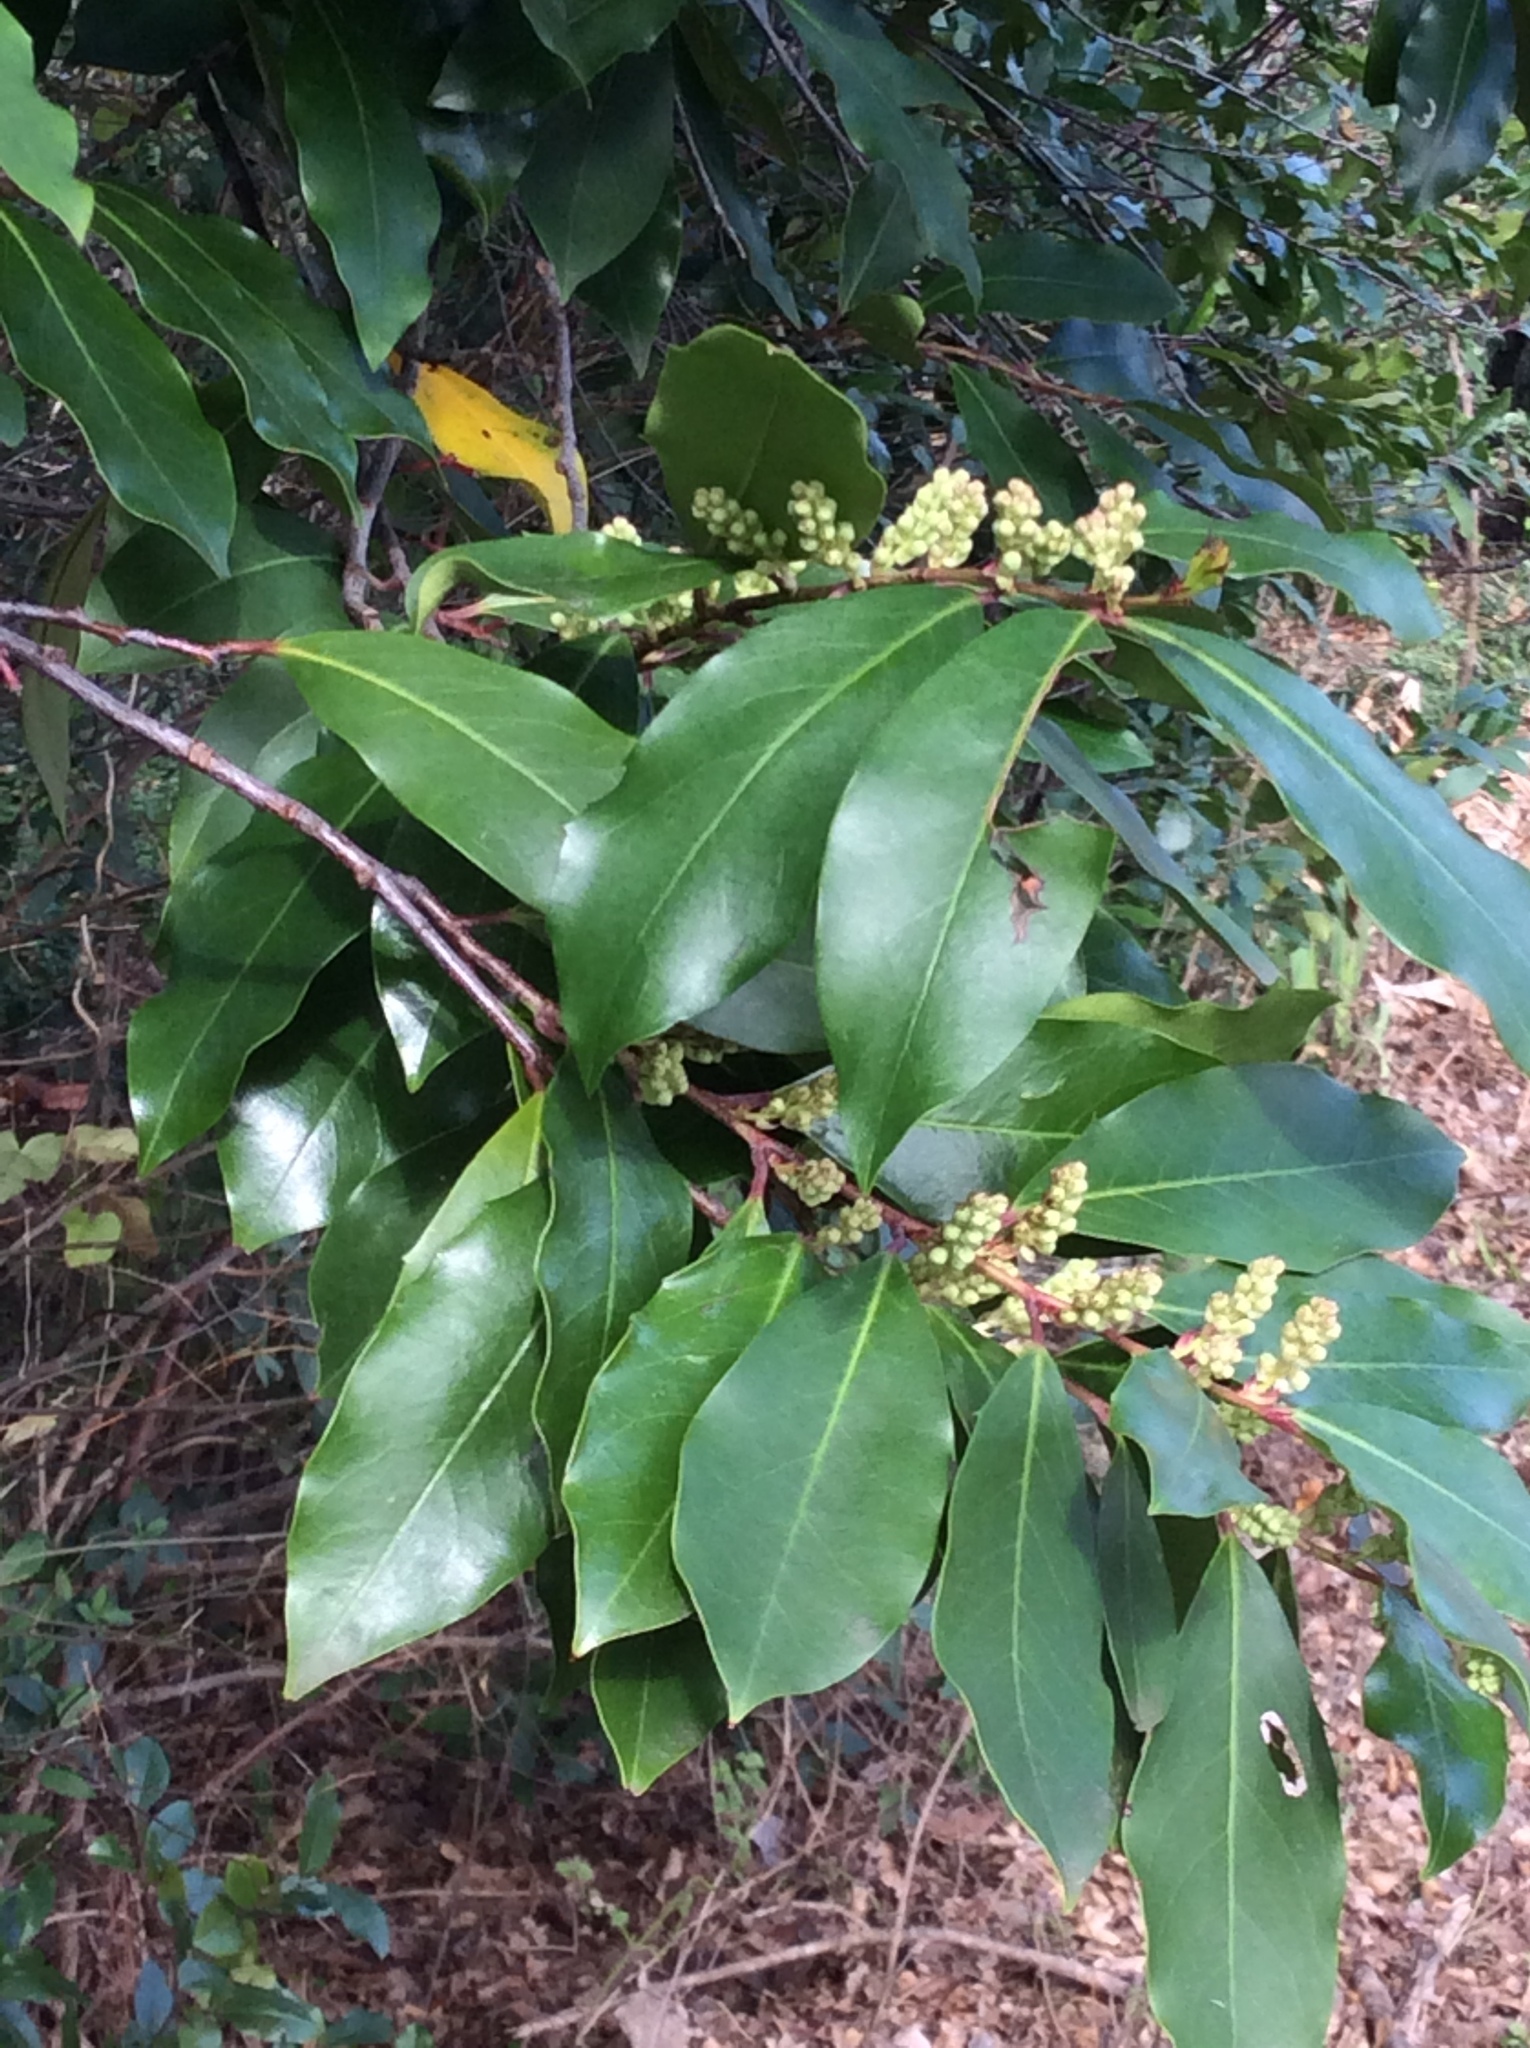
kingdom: Plantae
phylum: Tracheophyta
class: Magnoliopsida
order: Rosales
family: Rosaceae
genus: Prunus
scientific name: Prunus caroliniana
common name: Carolina laurel cherry
